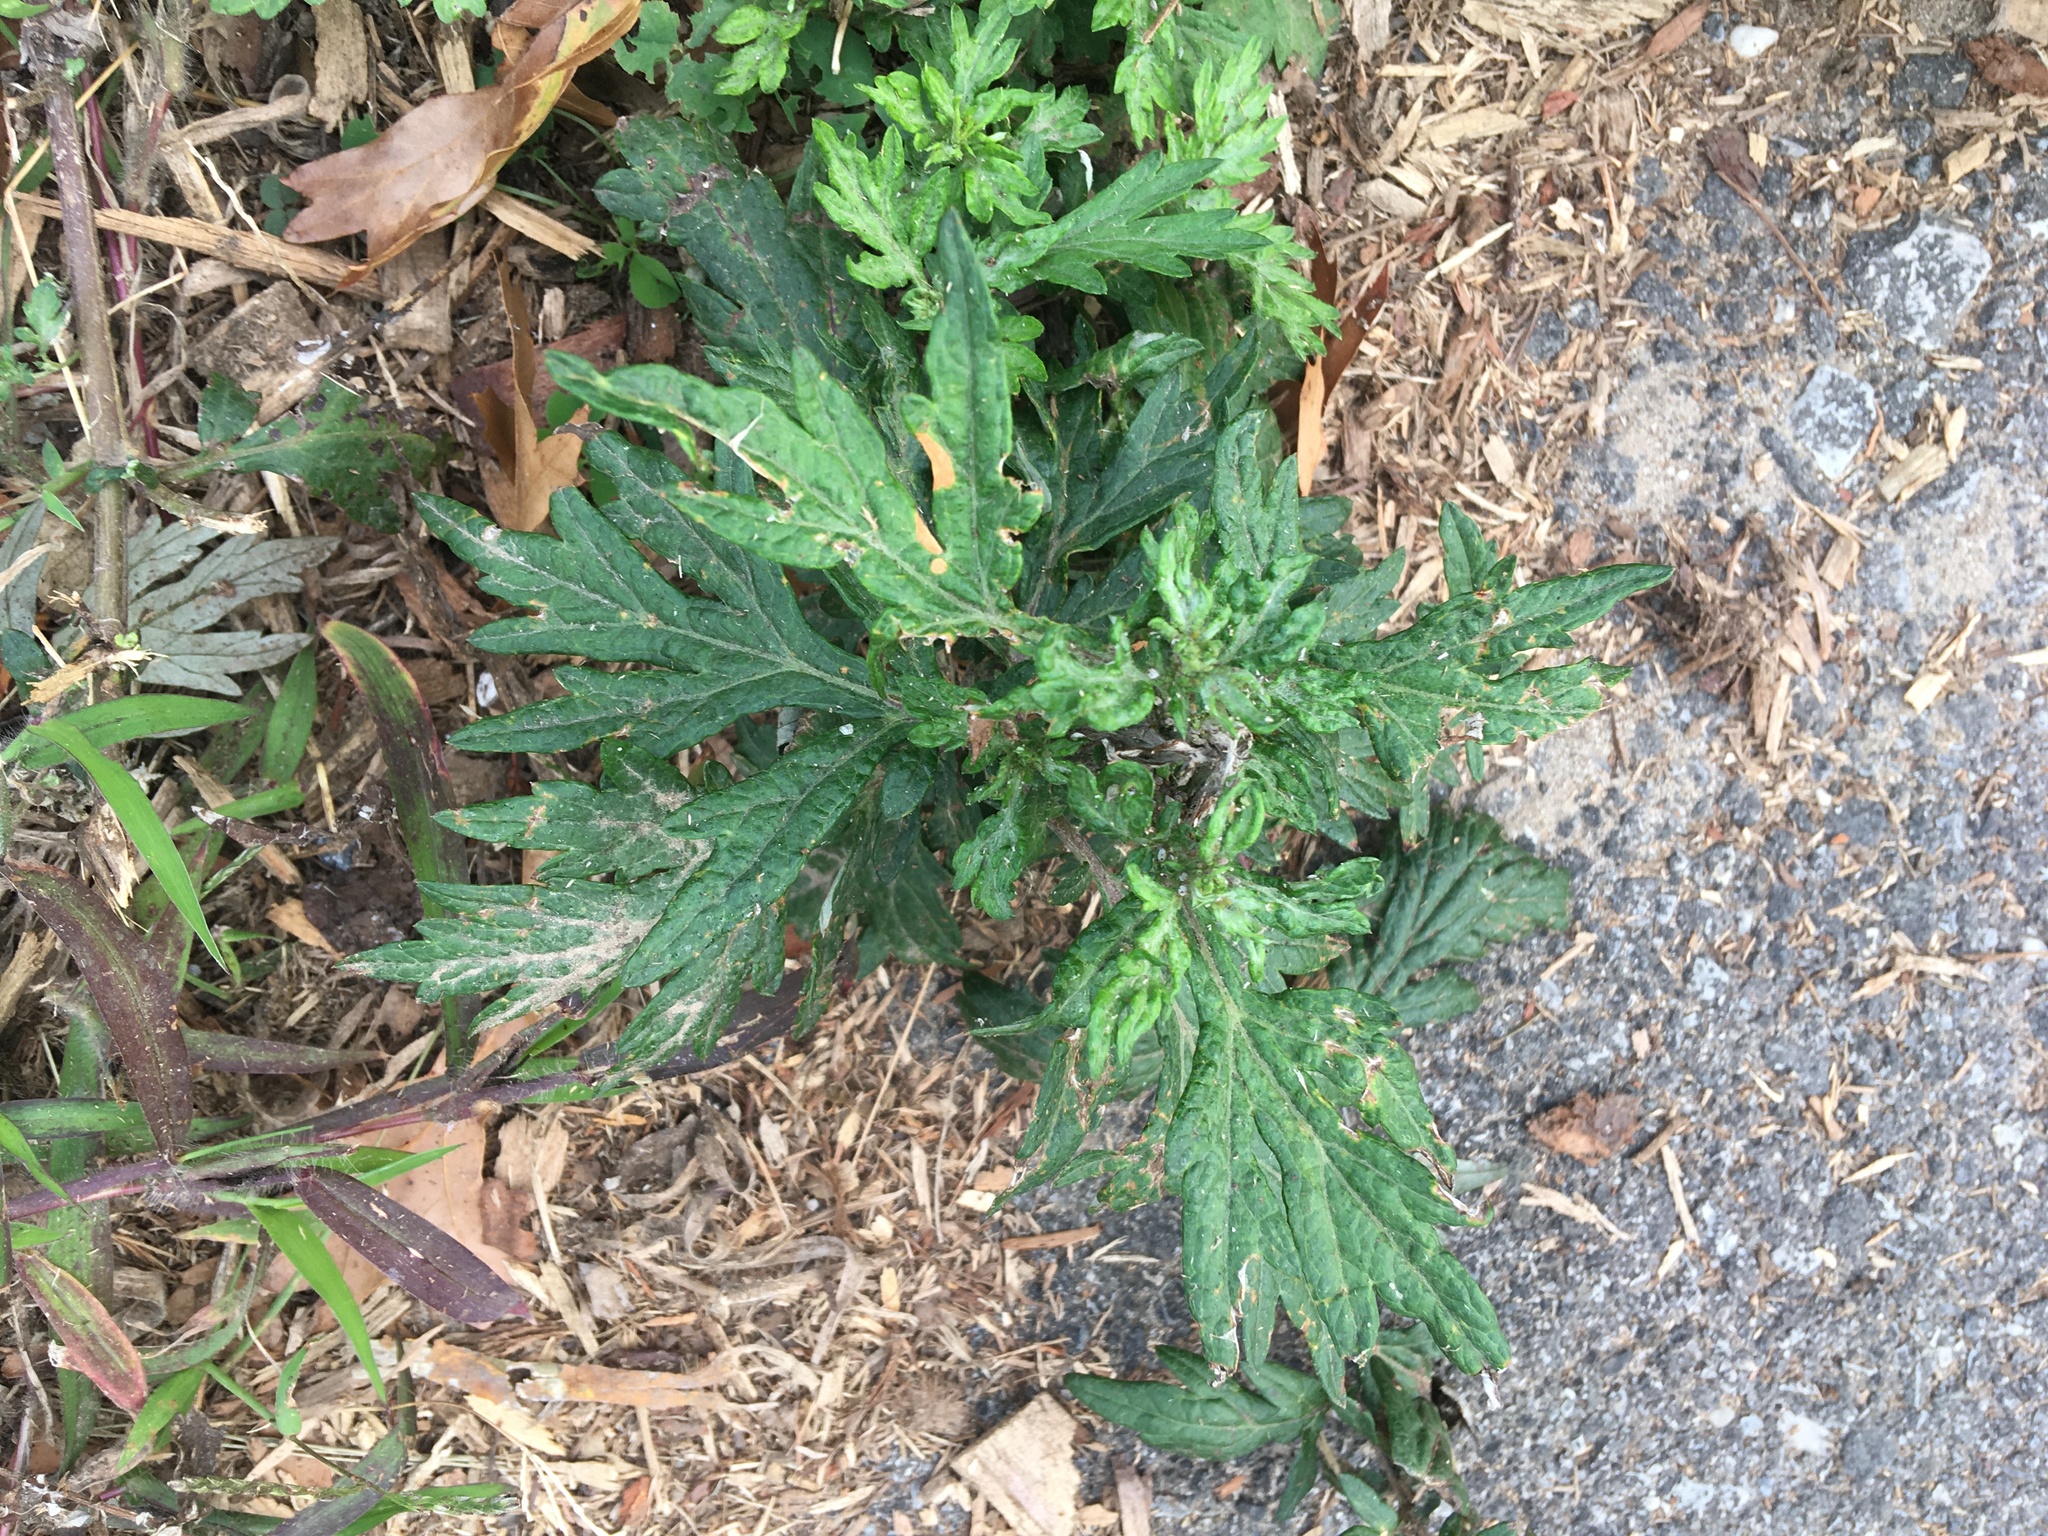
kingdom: Plantae
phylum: Tracheophyta
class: Magnoliopsida
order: Asterales
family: Asteraceae
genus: Artemisia
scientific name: Artemisia vulgaris
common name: Mugwort
